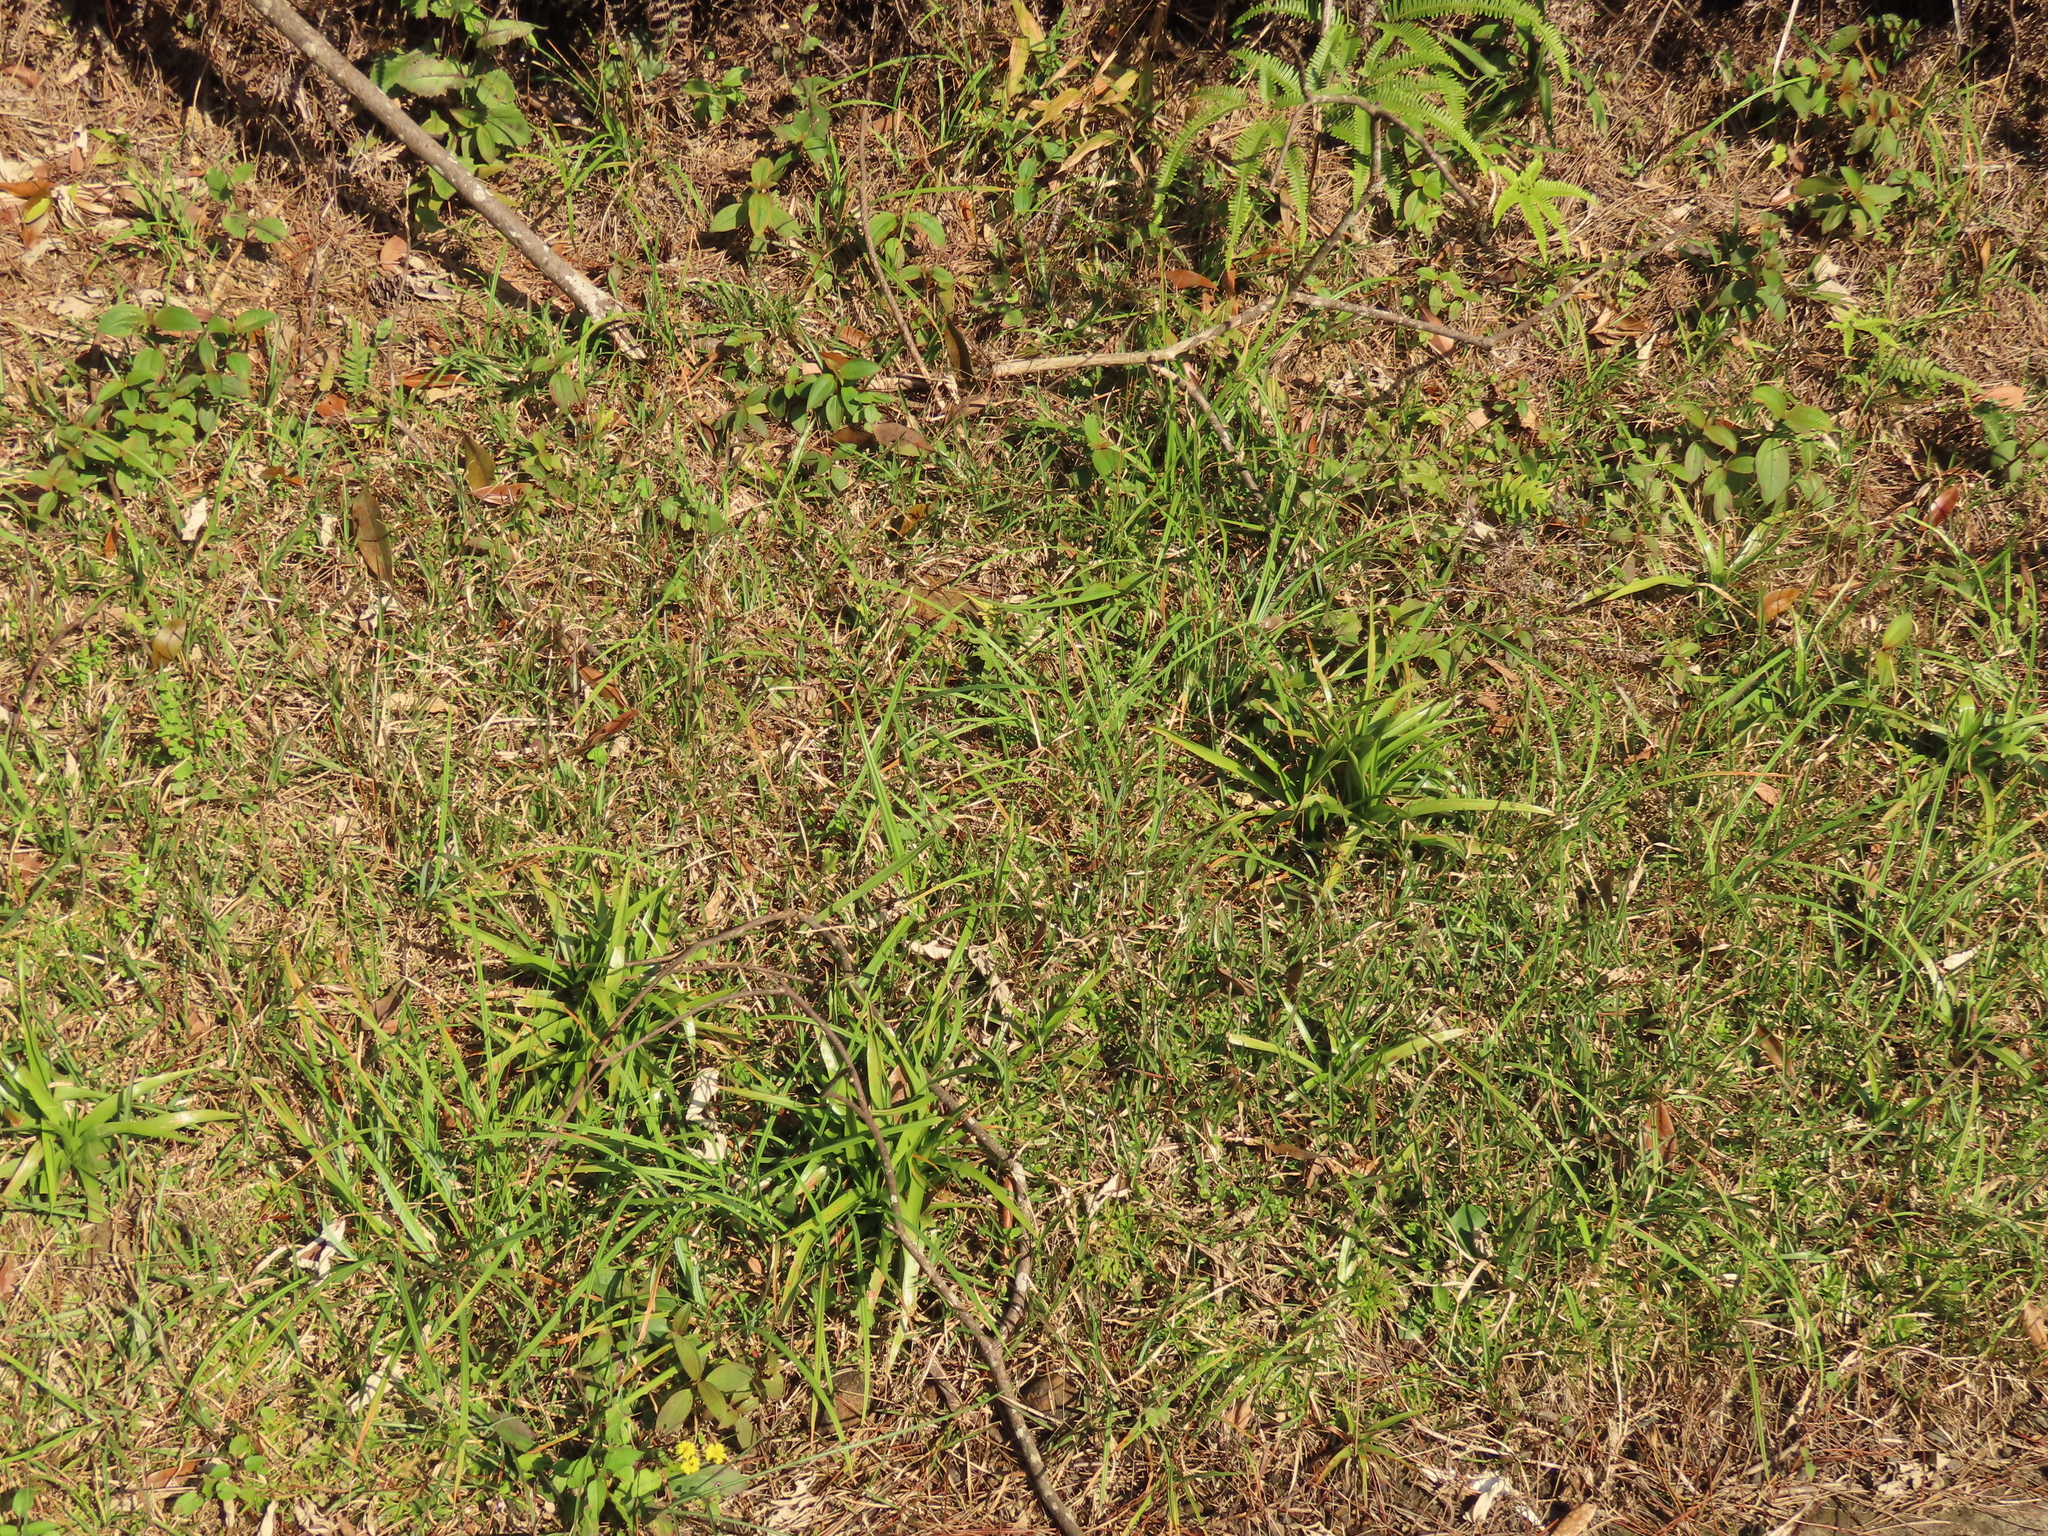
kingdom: Plantae
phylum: Tracheophyta
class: Liliopsida
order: Poales
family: Eriocaulaceae
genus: Eriocaulon
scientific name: Eriocaulon sexangulare
